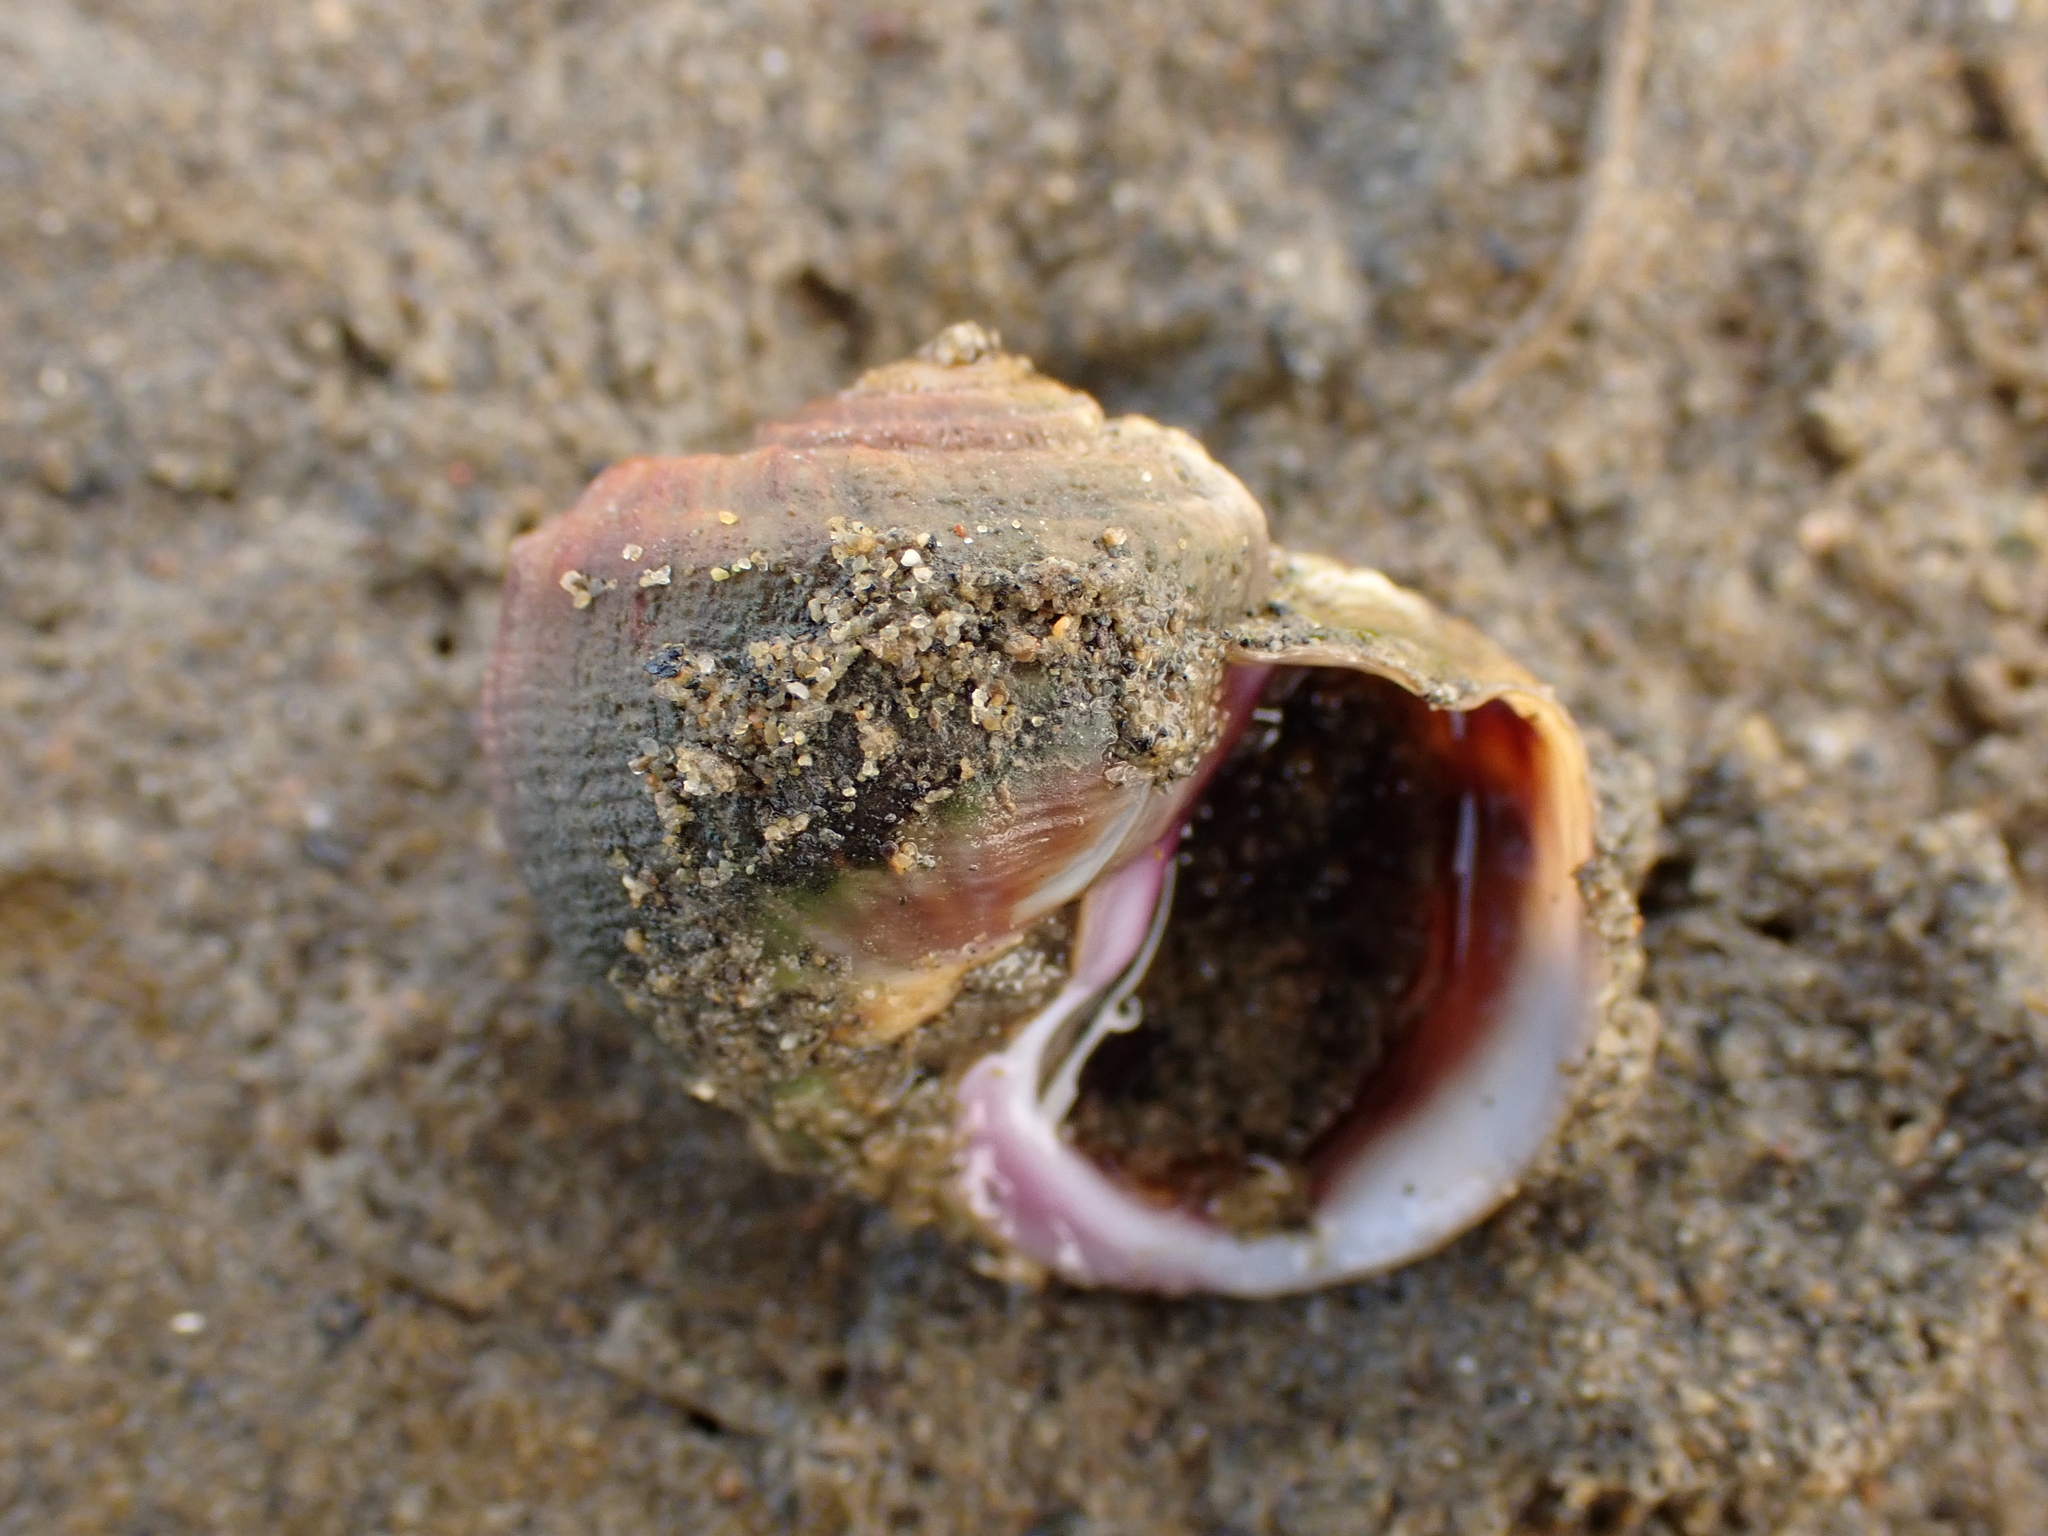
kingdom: Animalia
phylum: Mollusca
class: Gastropoda
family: Amphibolidae
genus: Amphibola
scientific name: Amphibola crenata
